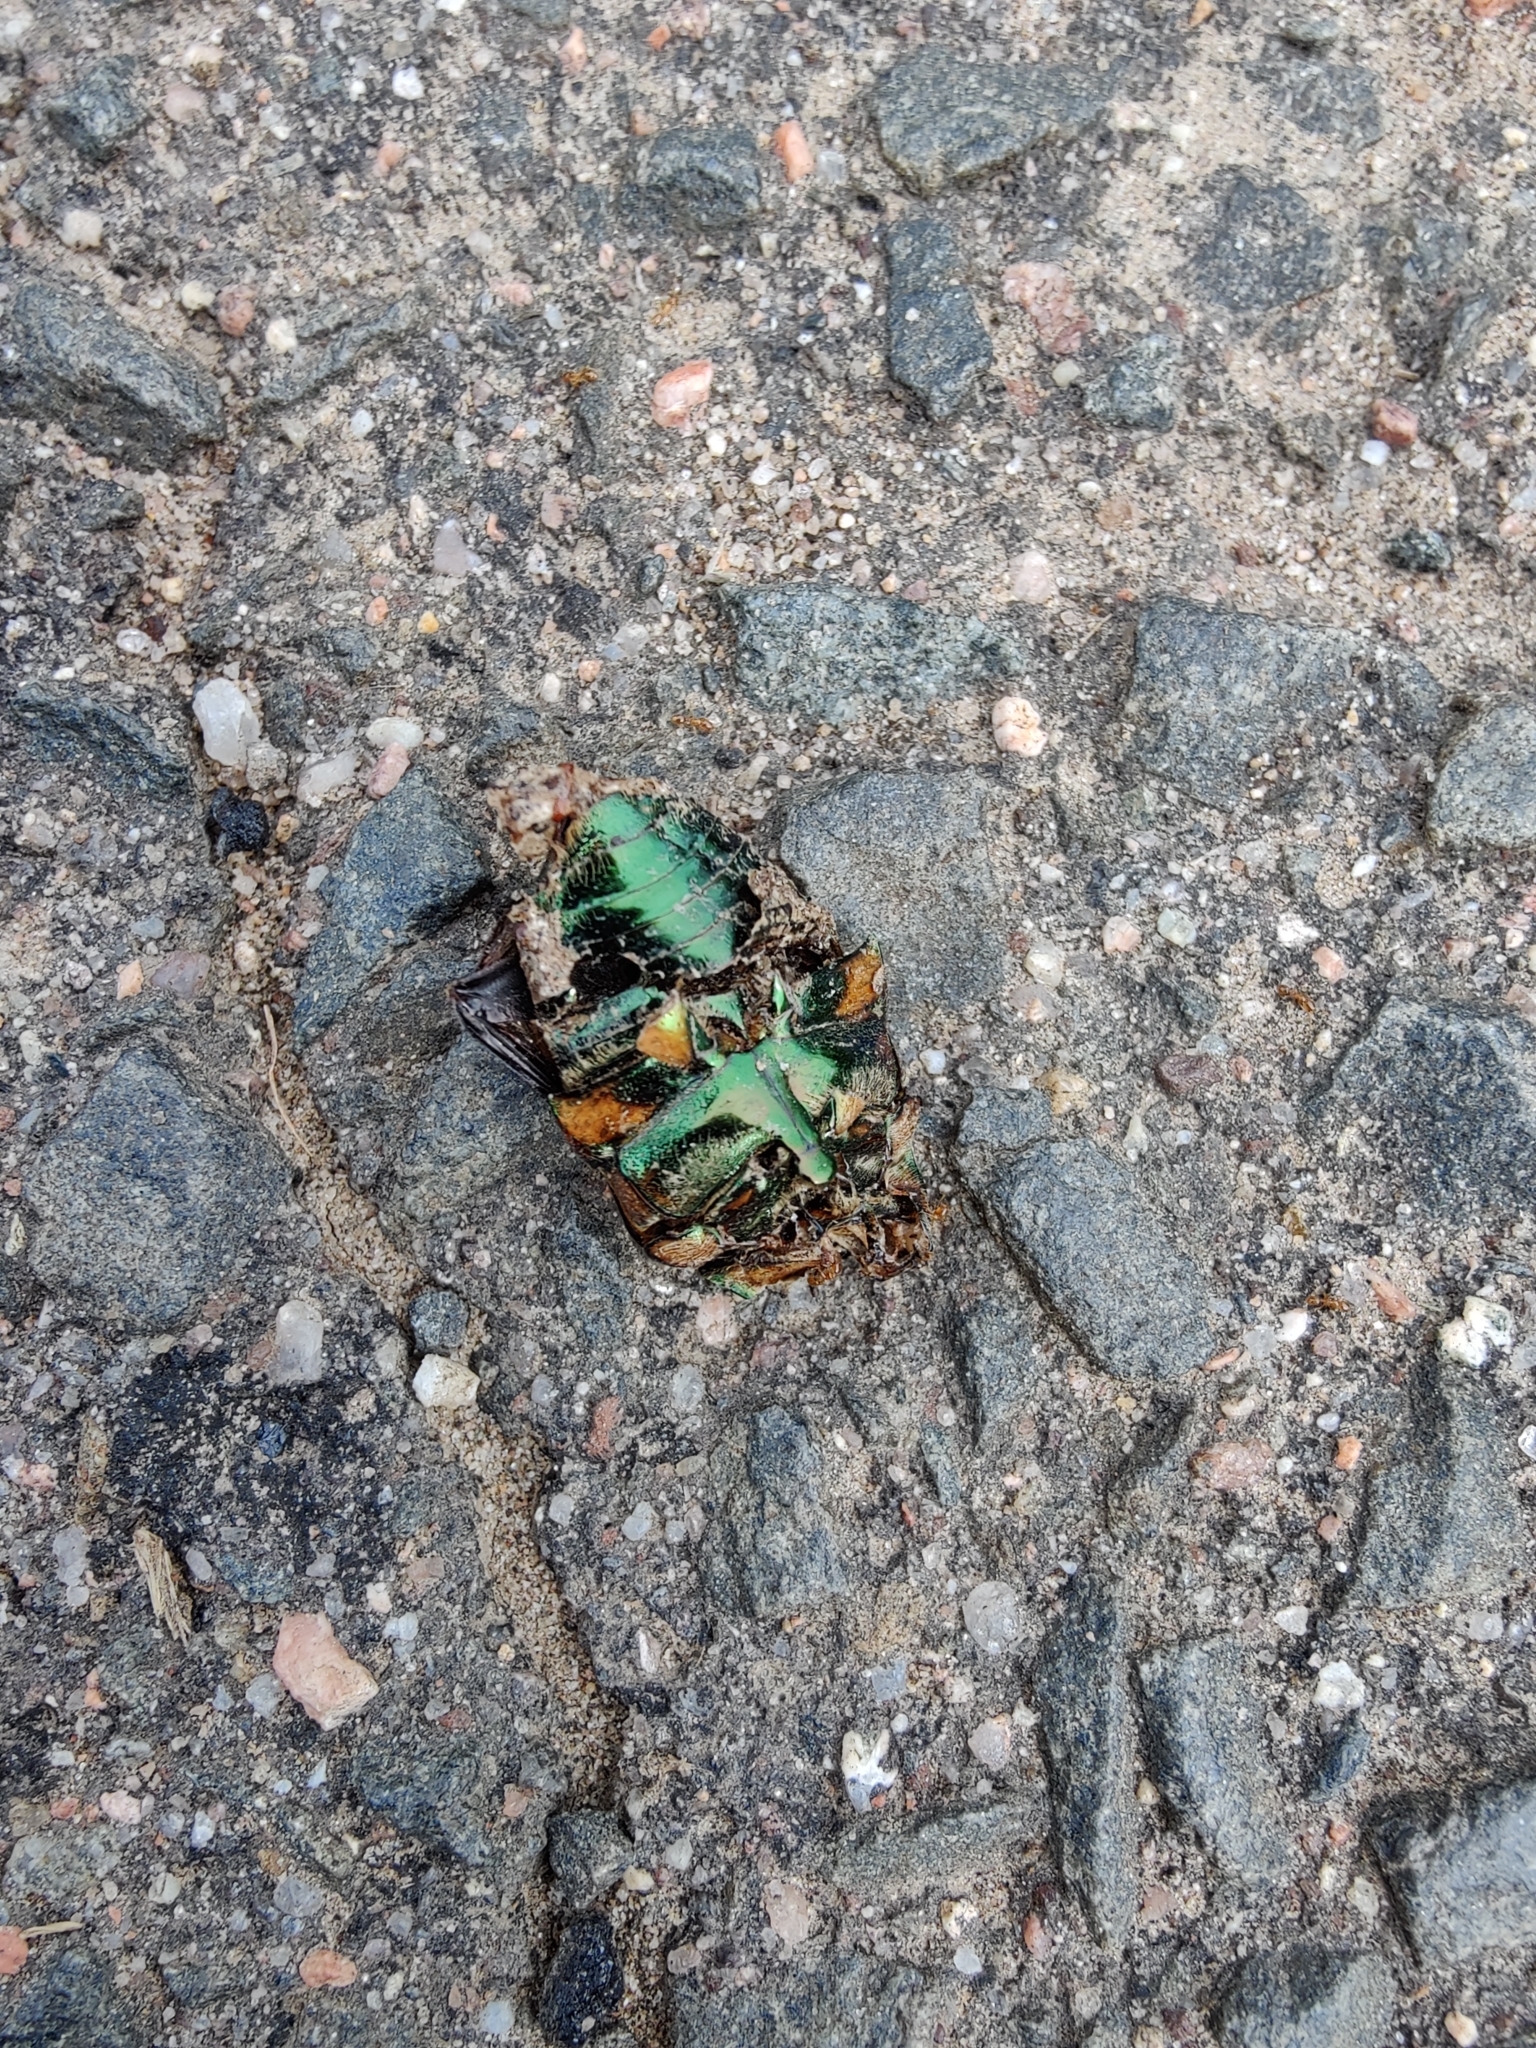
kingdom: Animalia
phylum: Arthropoda
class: Insecta
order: Coleoptera
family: Scarabaeidae
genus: Cotinis
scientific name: Cotinis nitida
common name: Common green june beetle
